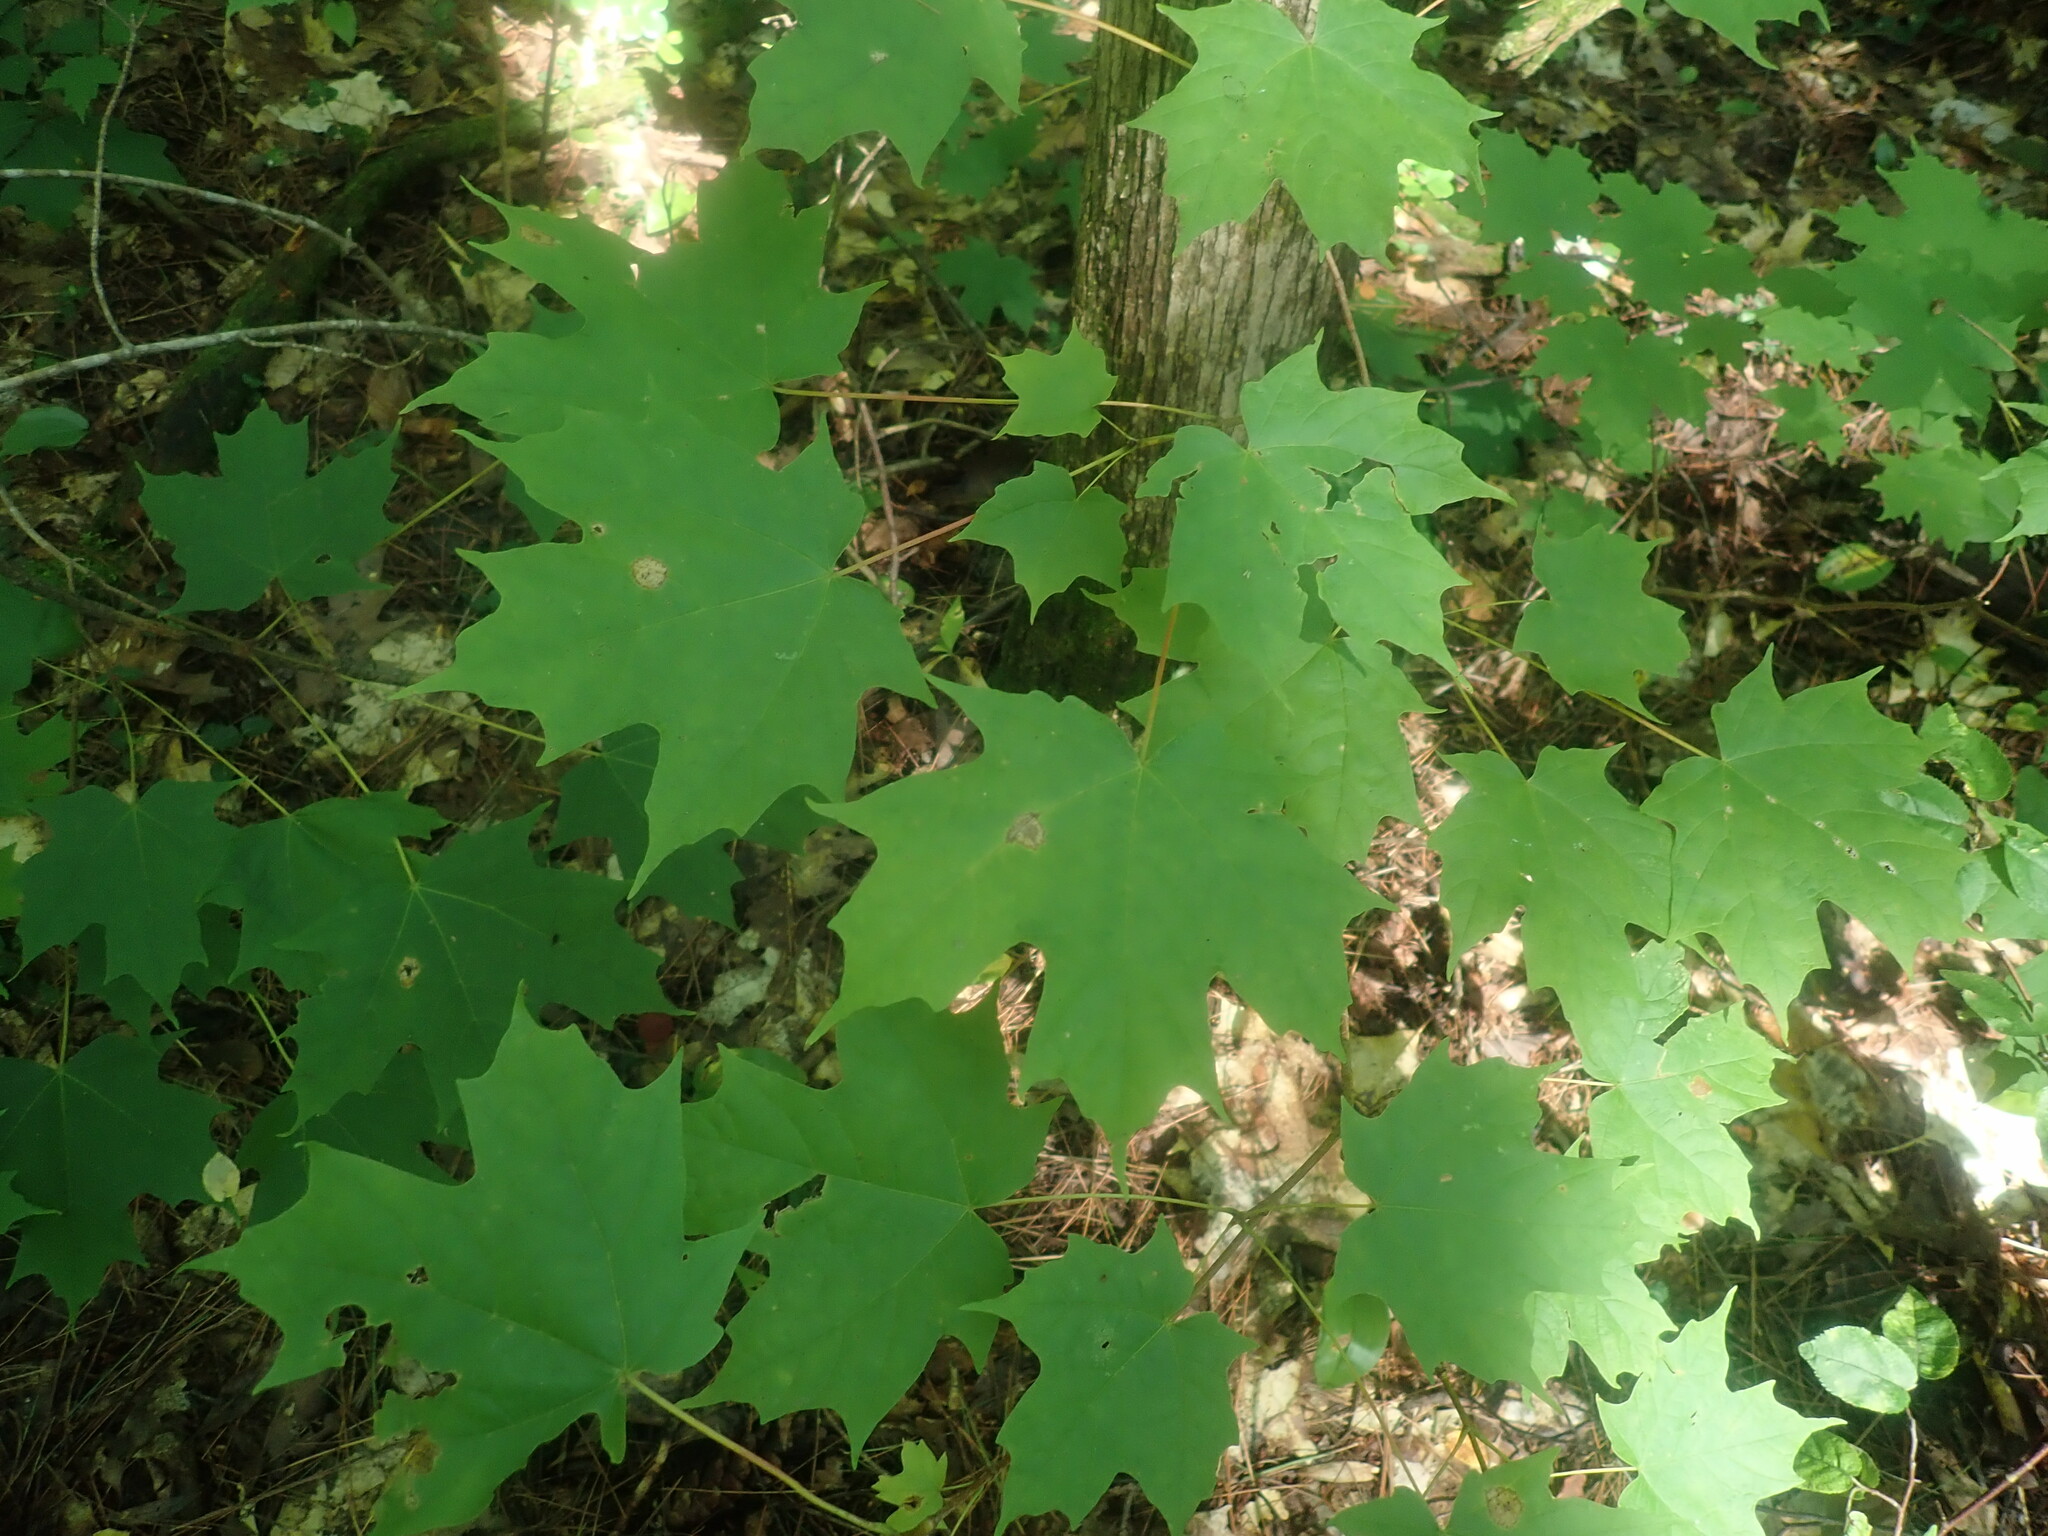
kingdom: Plantae
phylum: Tracheophyta
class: Magnoliopsida
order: Sapindales
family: Sapindaceae
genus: Acer
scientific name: Acer saccharum
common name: Sugar maple
